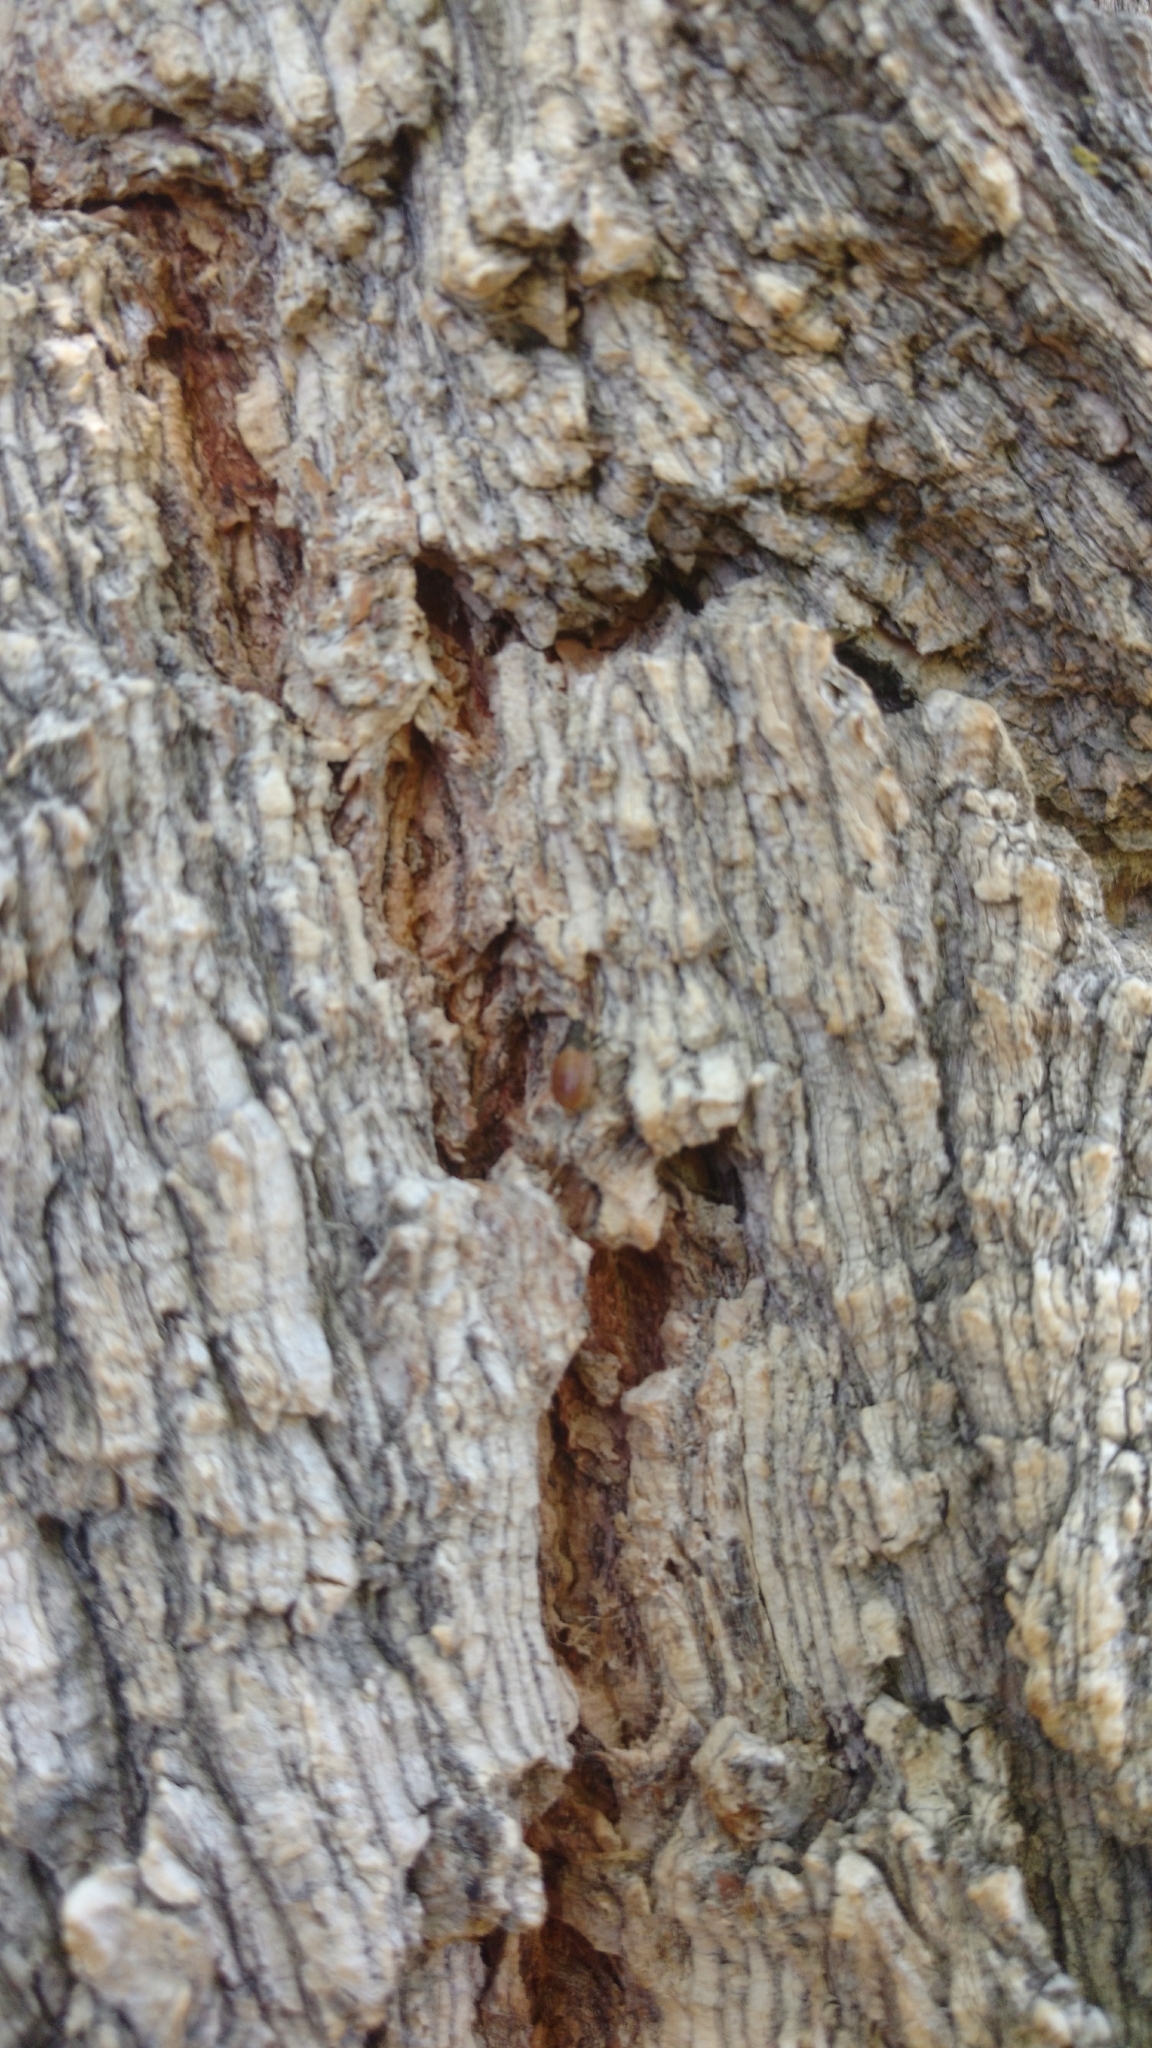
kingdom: Animalia
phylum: Arthropoda
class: Insecta
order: Hemiptera
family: Lygaeidae
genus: Arocatus
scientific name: Arocatus melanocephalus
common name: Lygaeid bug
